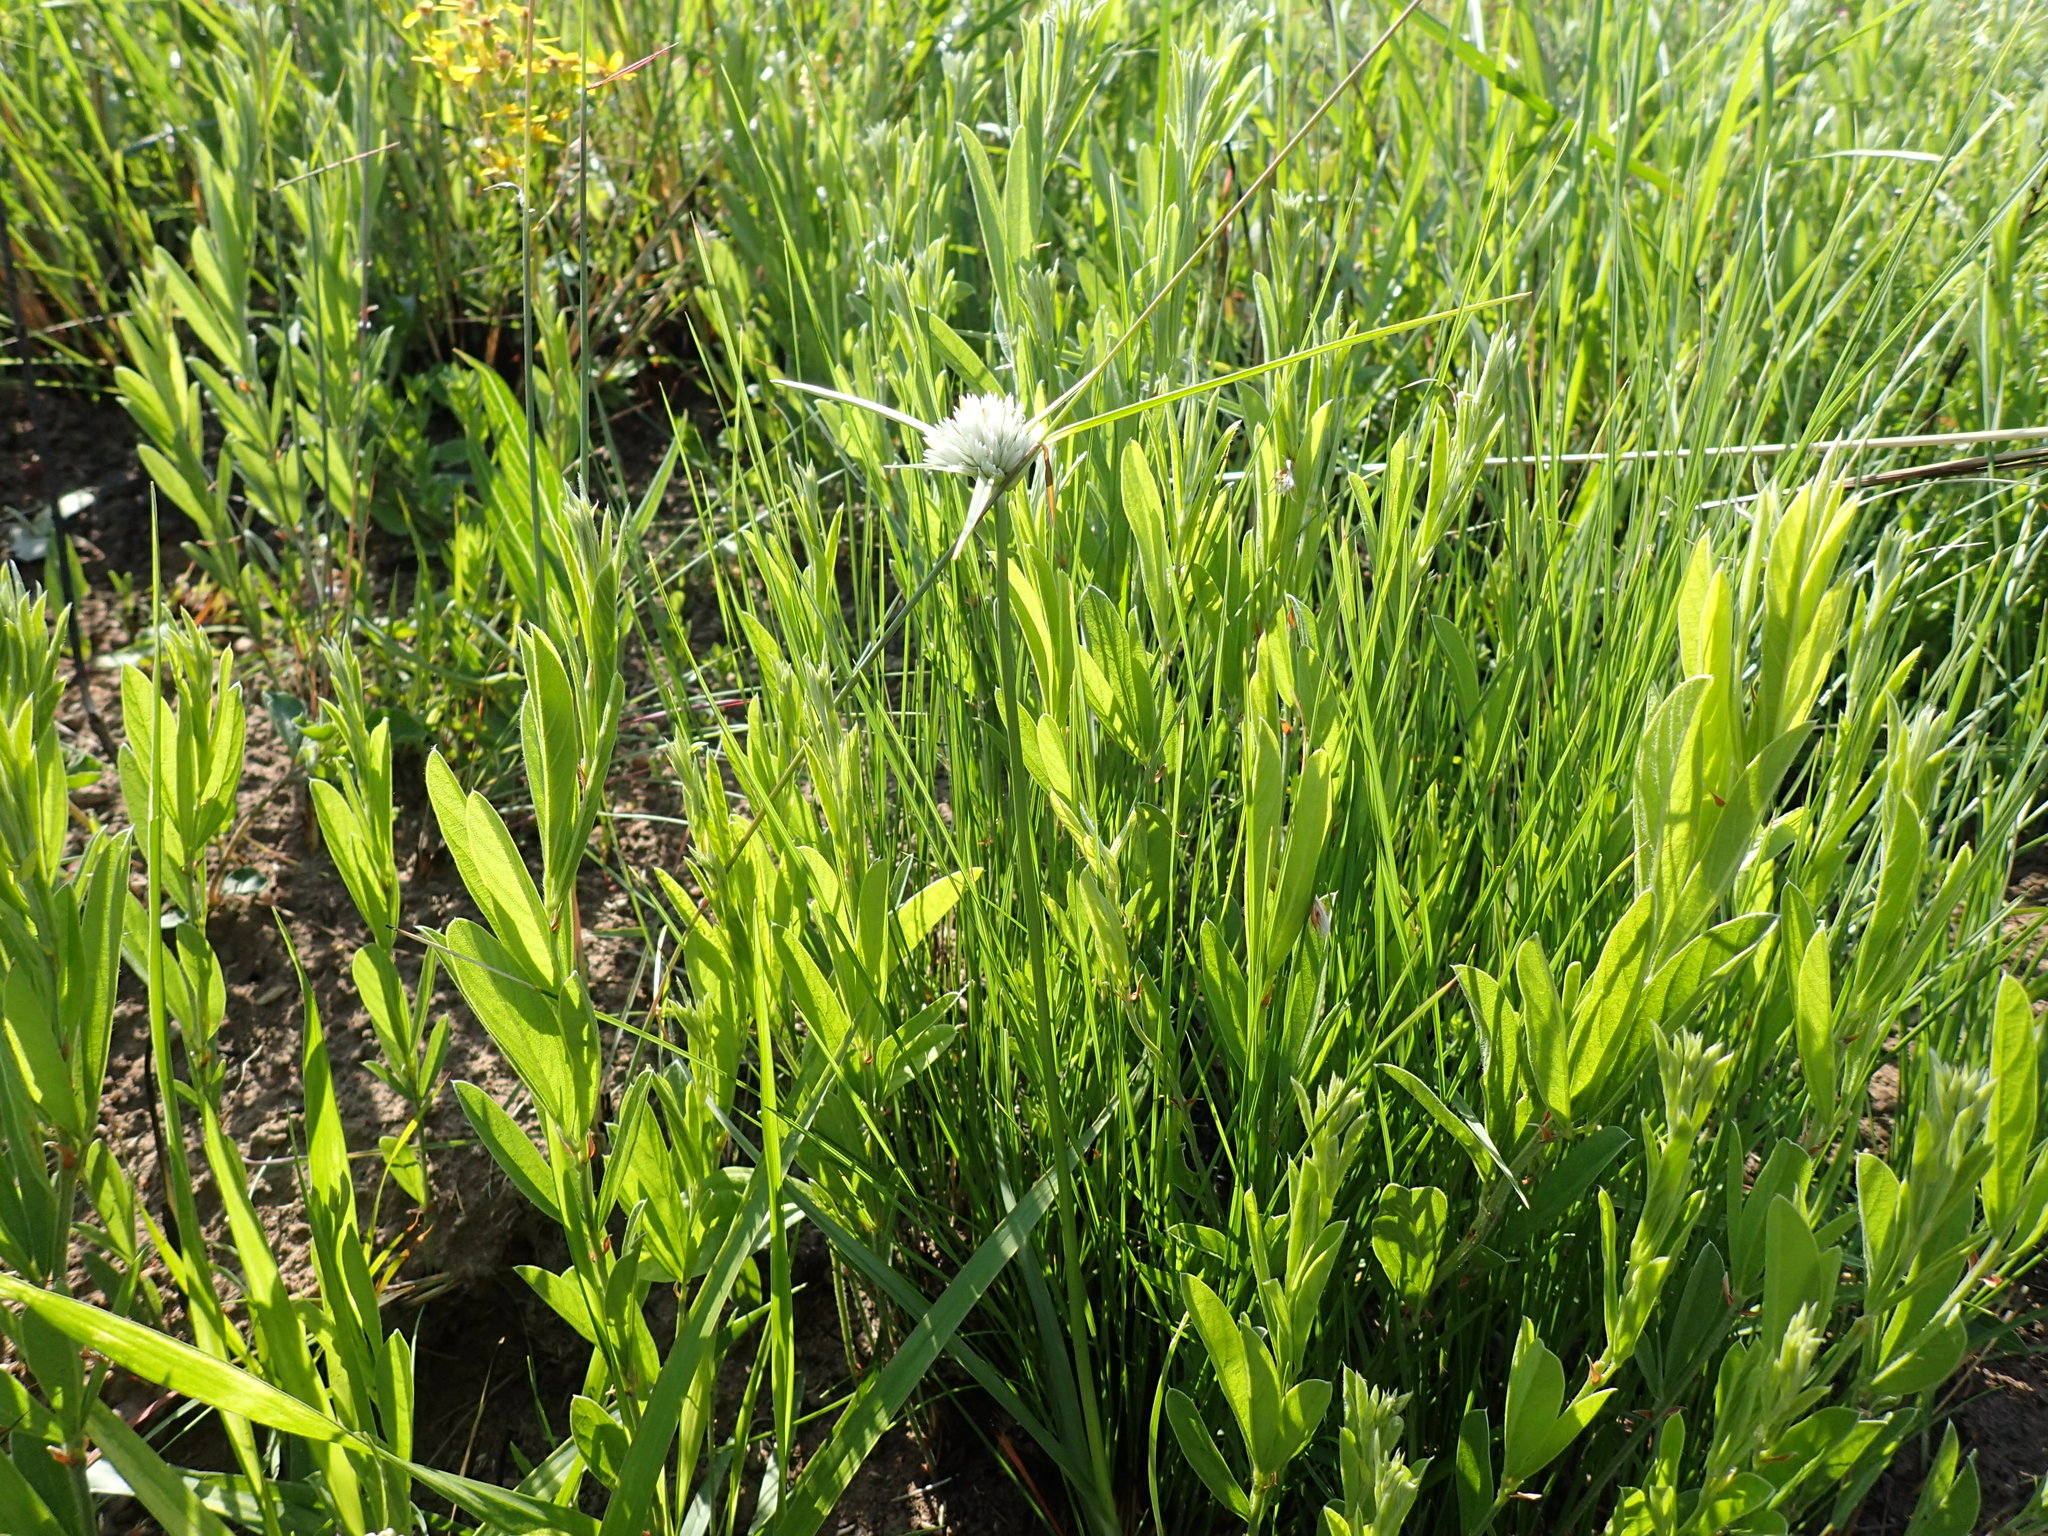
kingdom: Plantae
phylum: Tracheophyta
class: Liliopsida
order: Poales
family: Cyperaceae
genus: Cyperus
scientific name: Cyperus niveus
